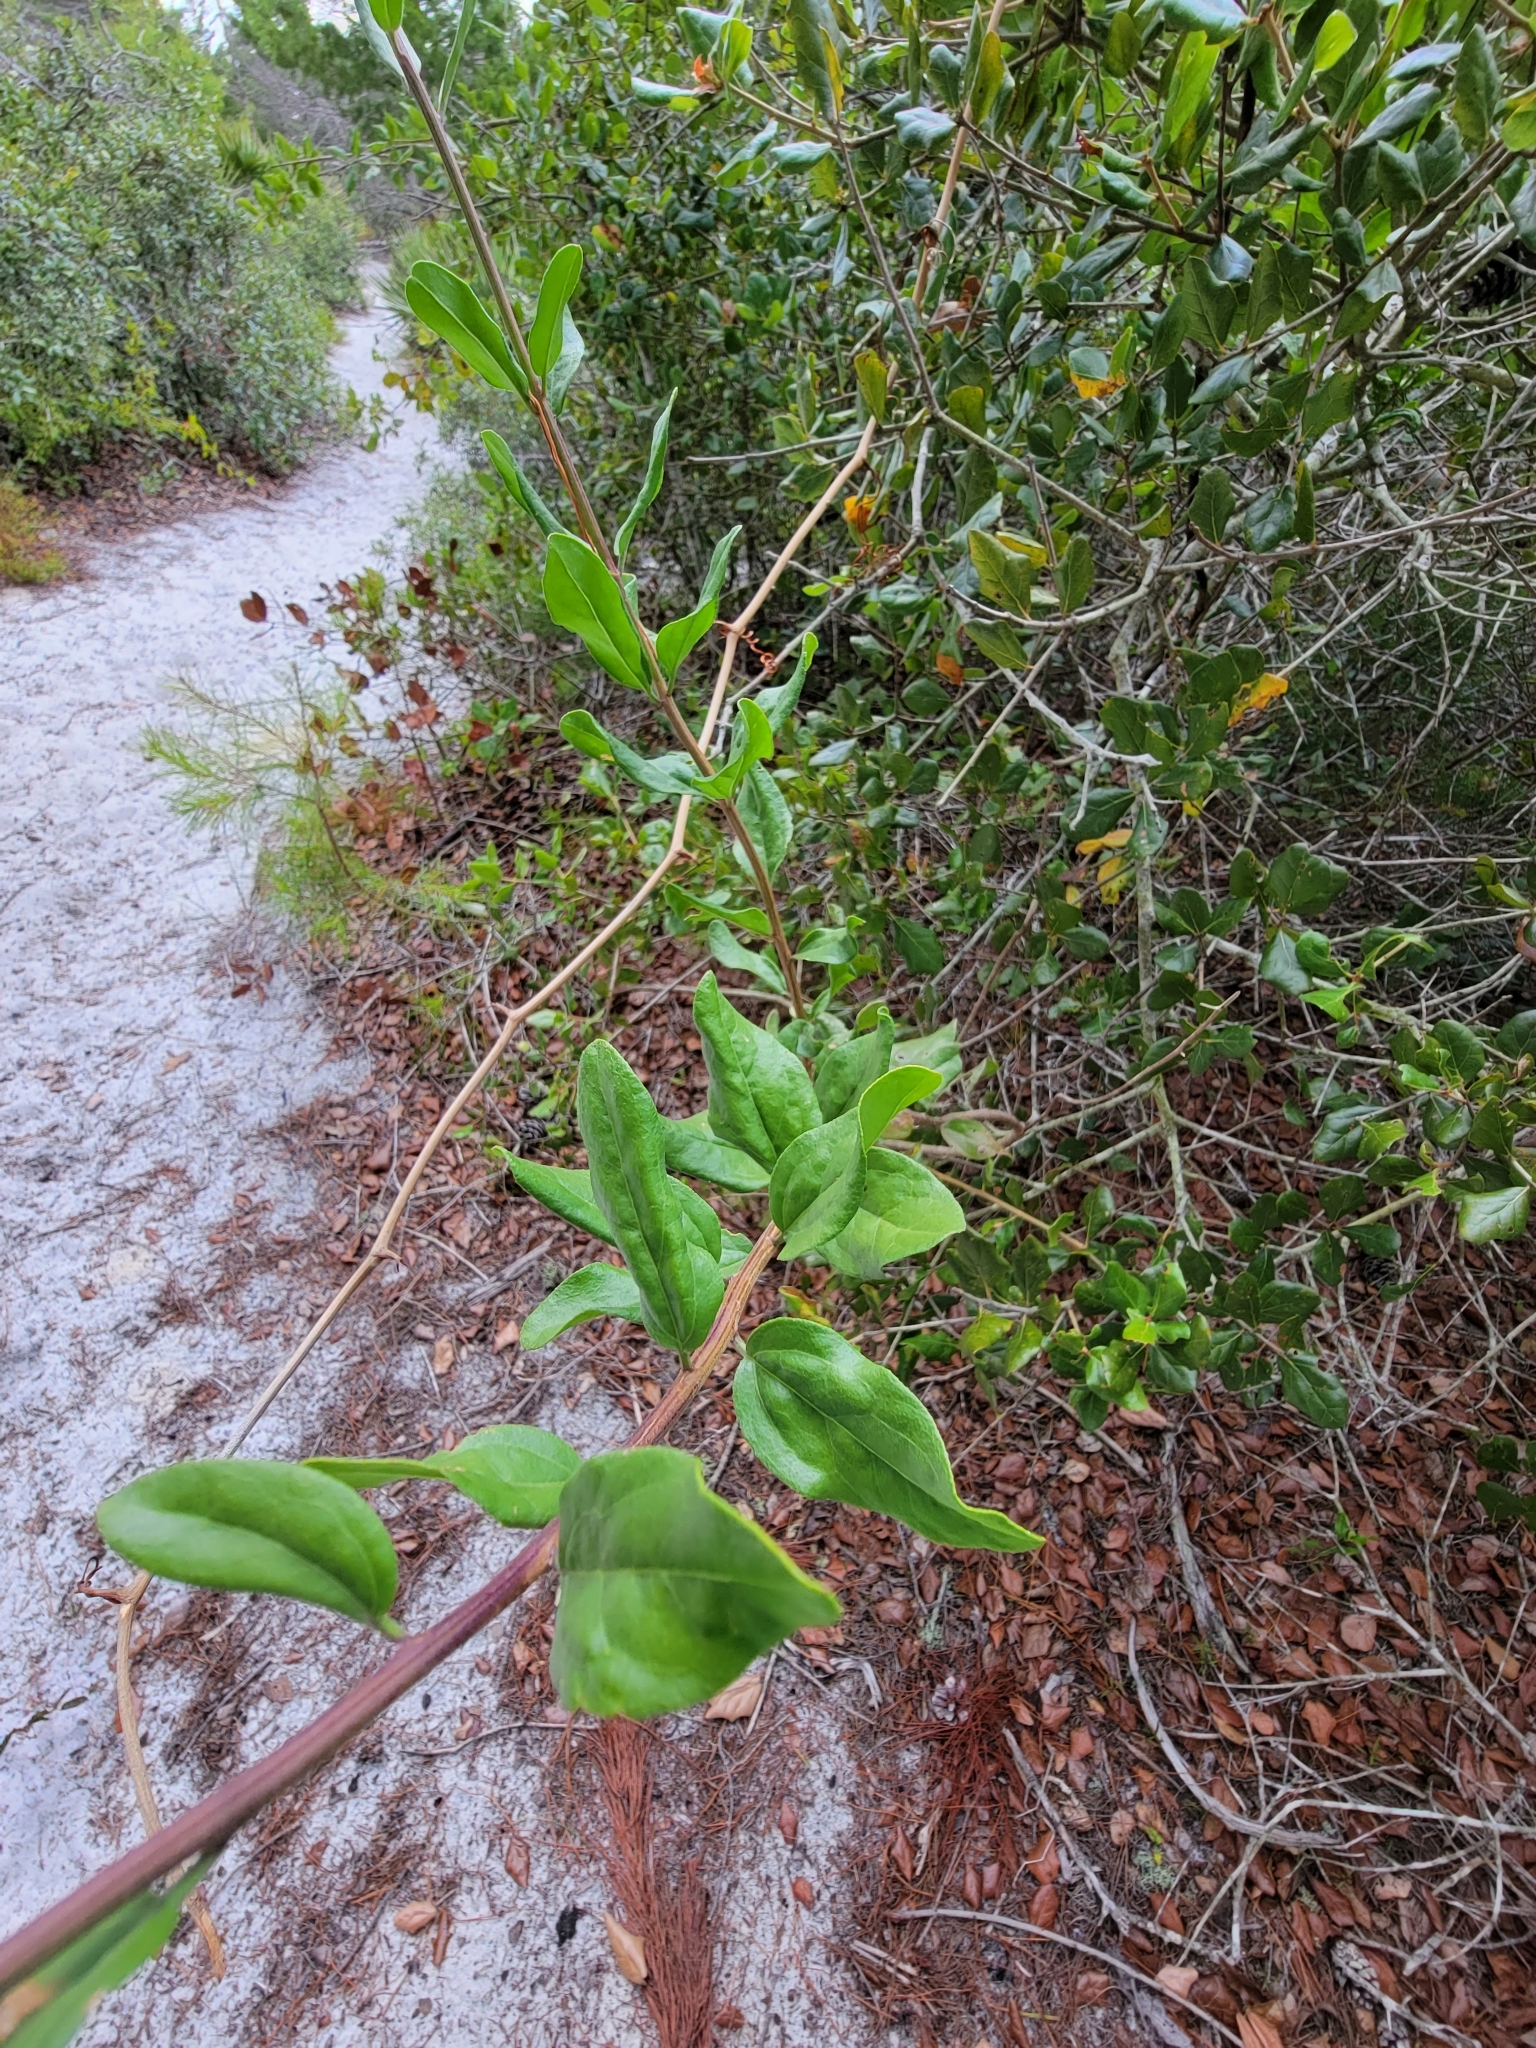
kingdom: Plantae
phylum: Tracheophyta
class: Magnoliopsida
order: Asterales
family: Asteraceae
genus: Palafoxia
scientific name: Palafoxia feayi
